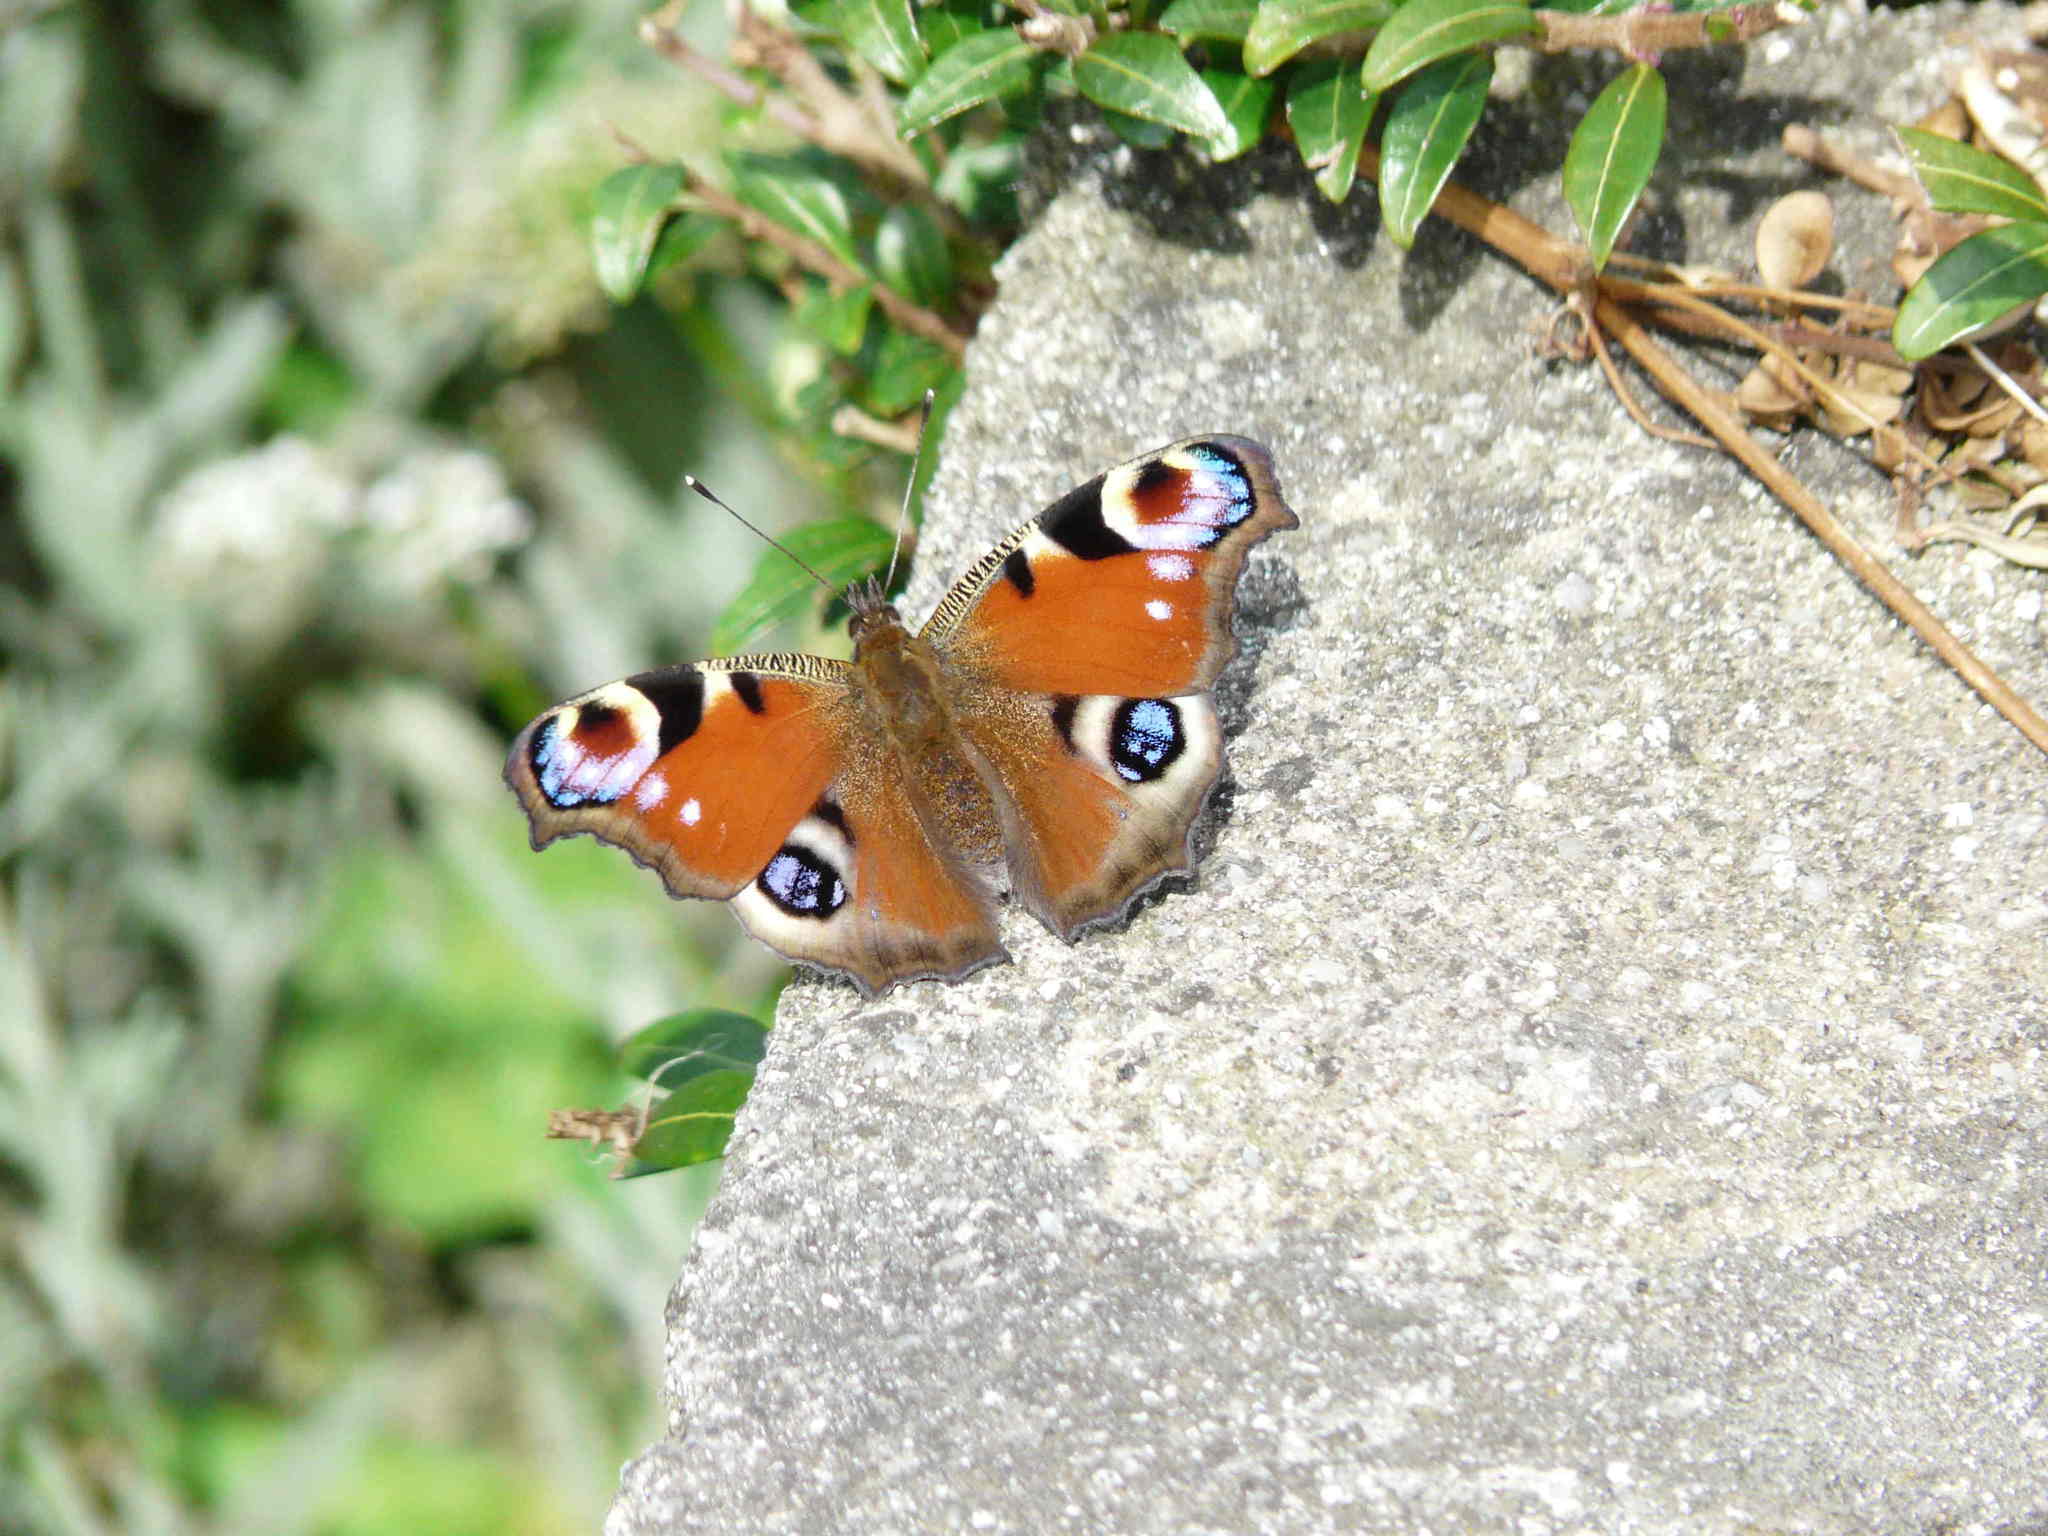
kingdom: Animalia
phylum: Arthropoda
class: Insecta
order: Lepidoptera
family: Nymphalidae
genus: Aglais
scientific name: Aglais io
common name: Peacock
